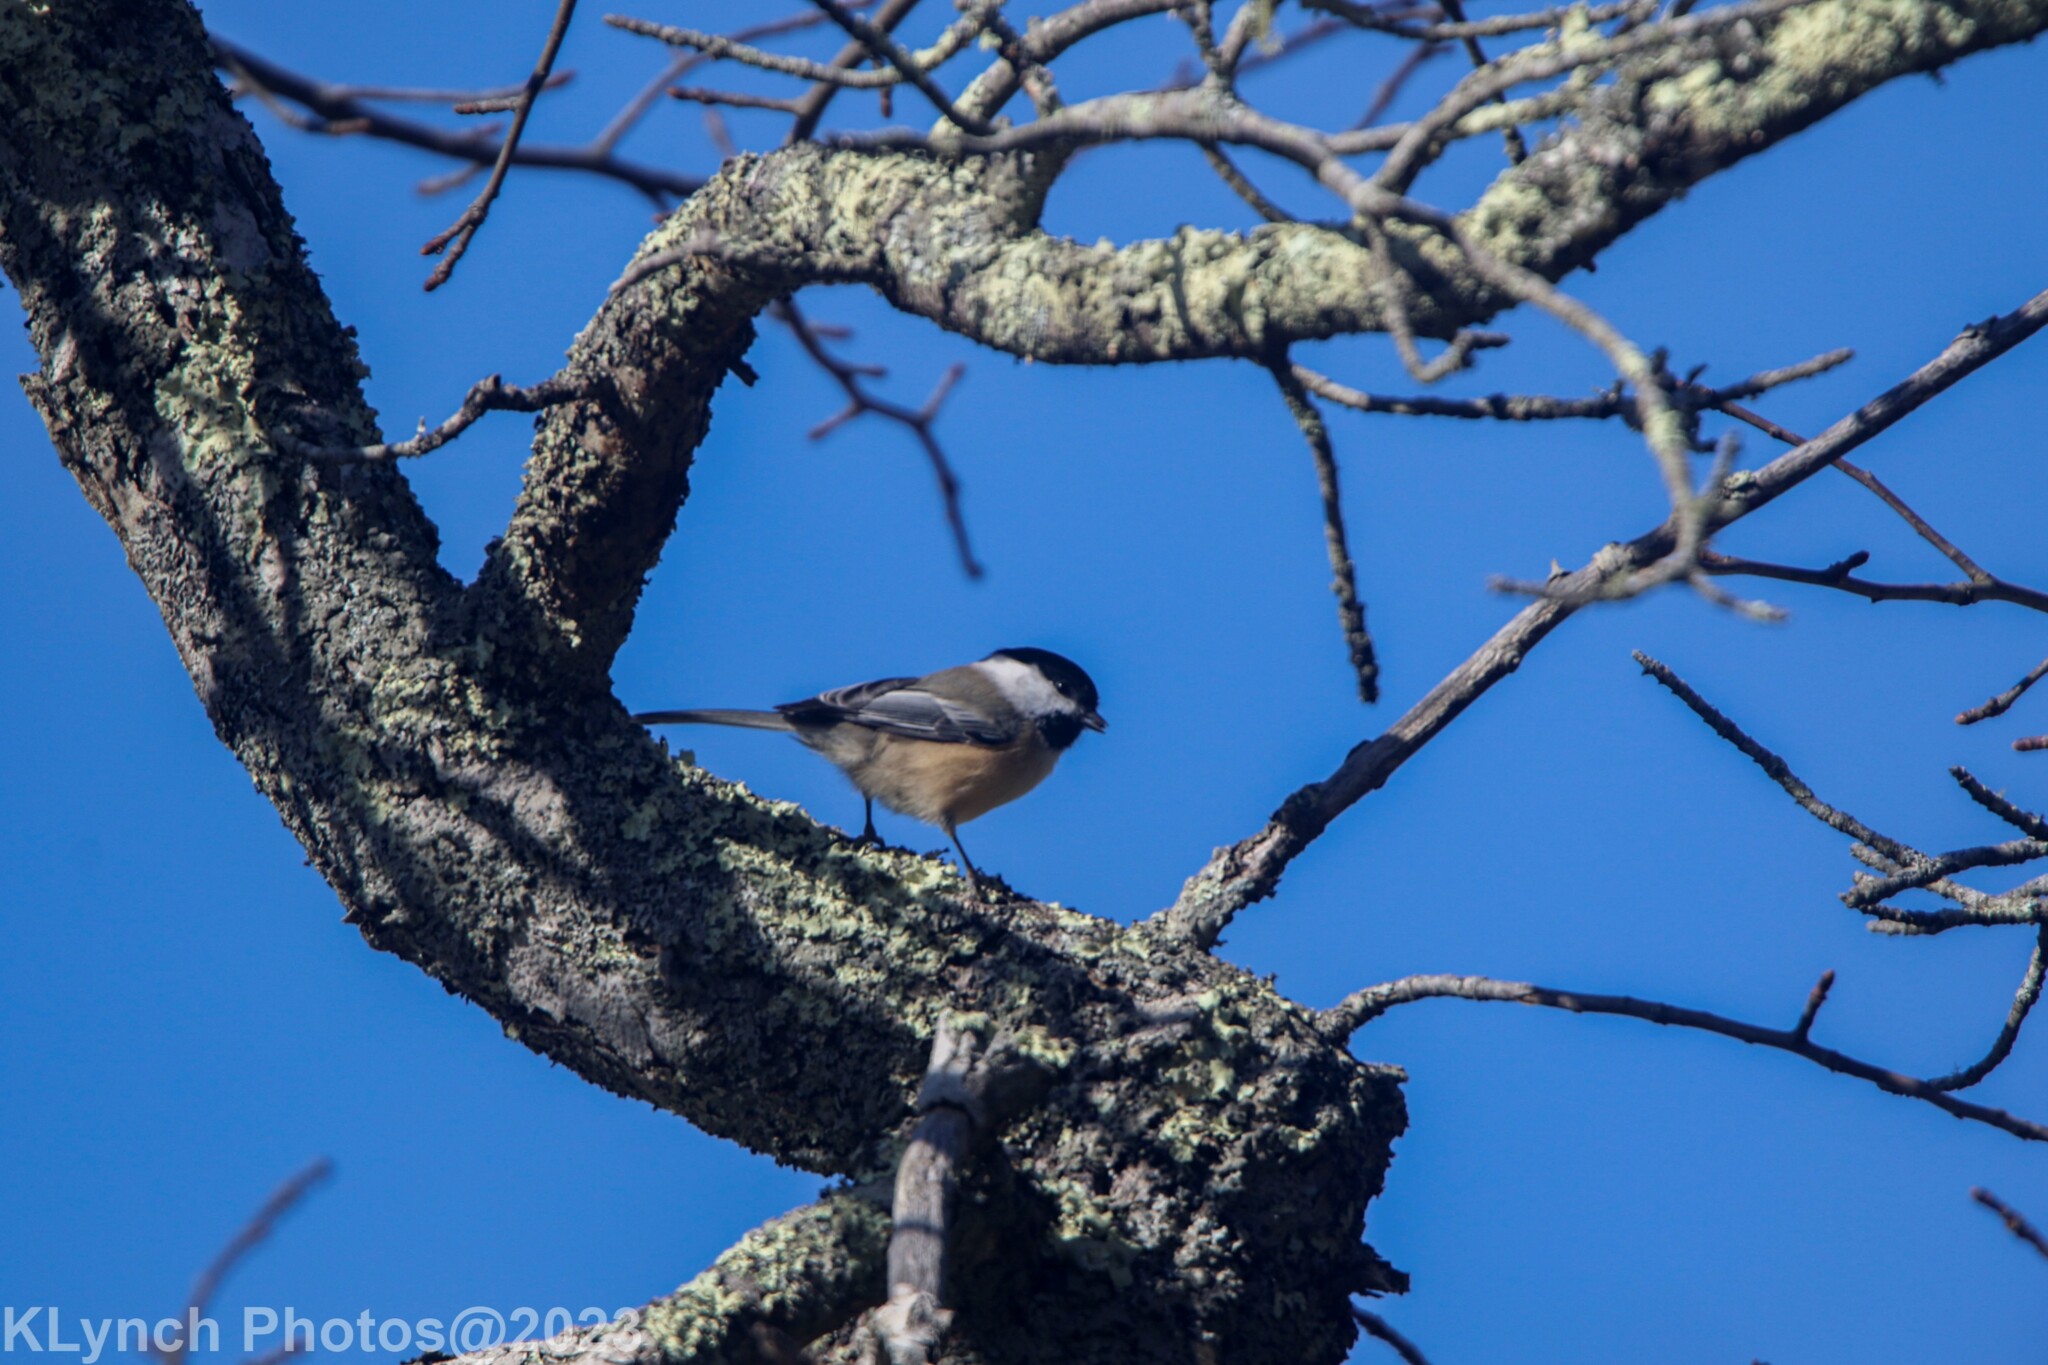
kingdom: Animalia
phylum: Chordata
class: Aves
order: Passeriformes
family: Paridae
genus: Poecile
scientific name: Poecile atricapillus
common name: Black-capped chickadee
